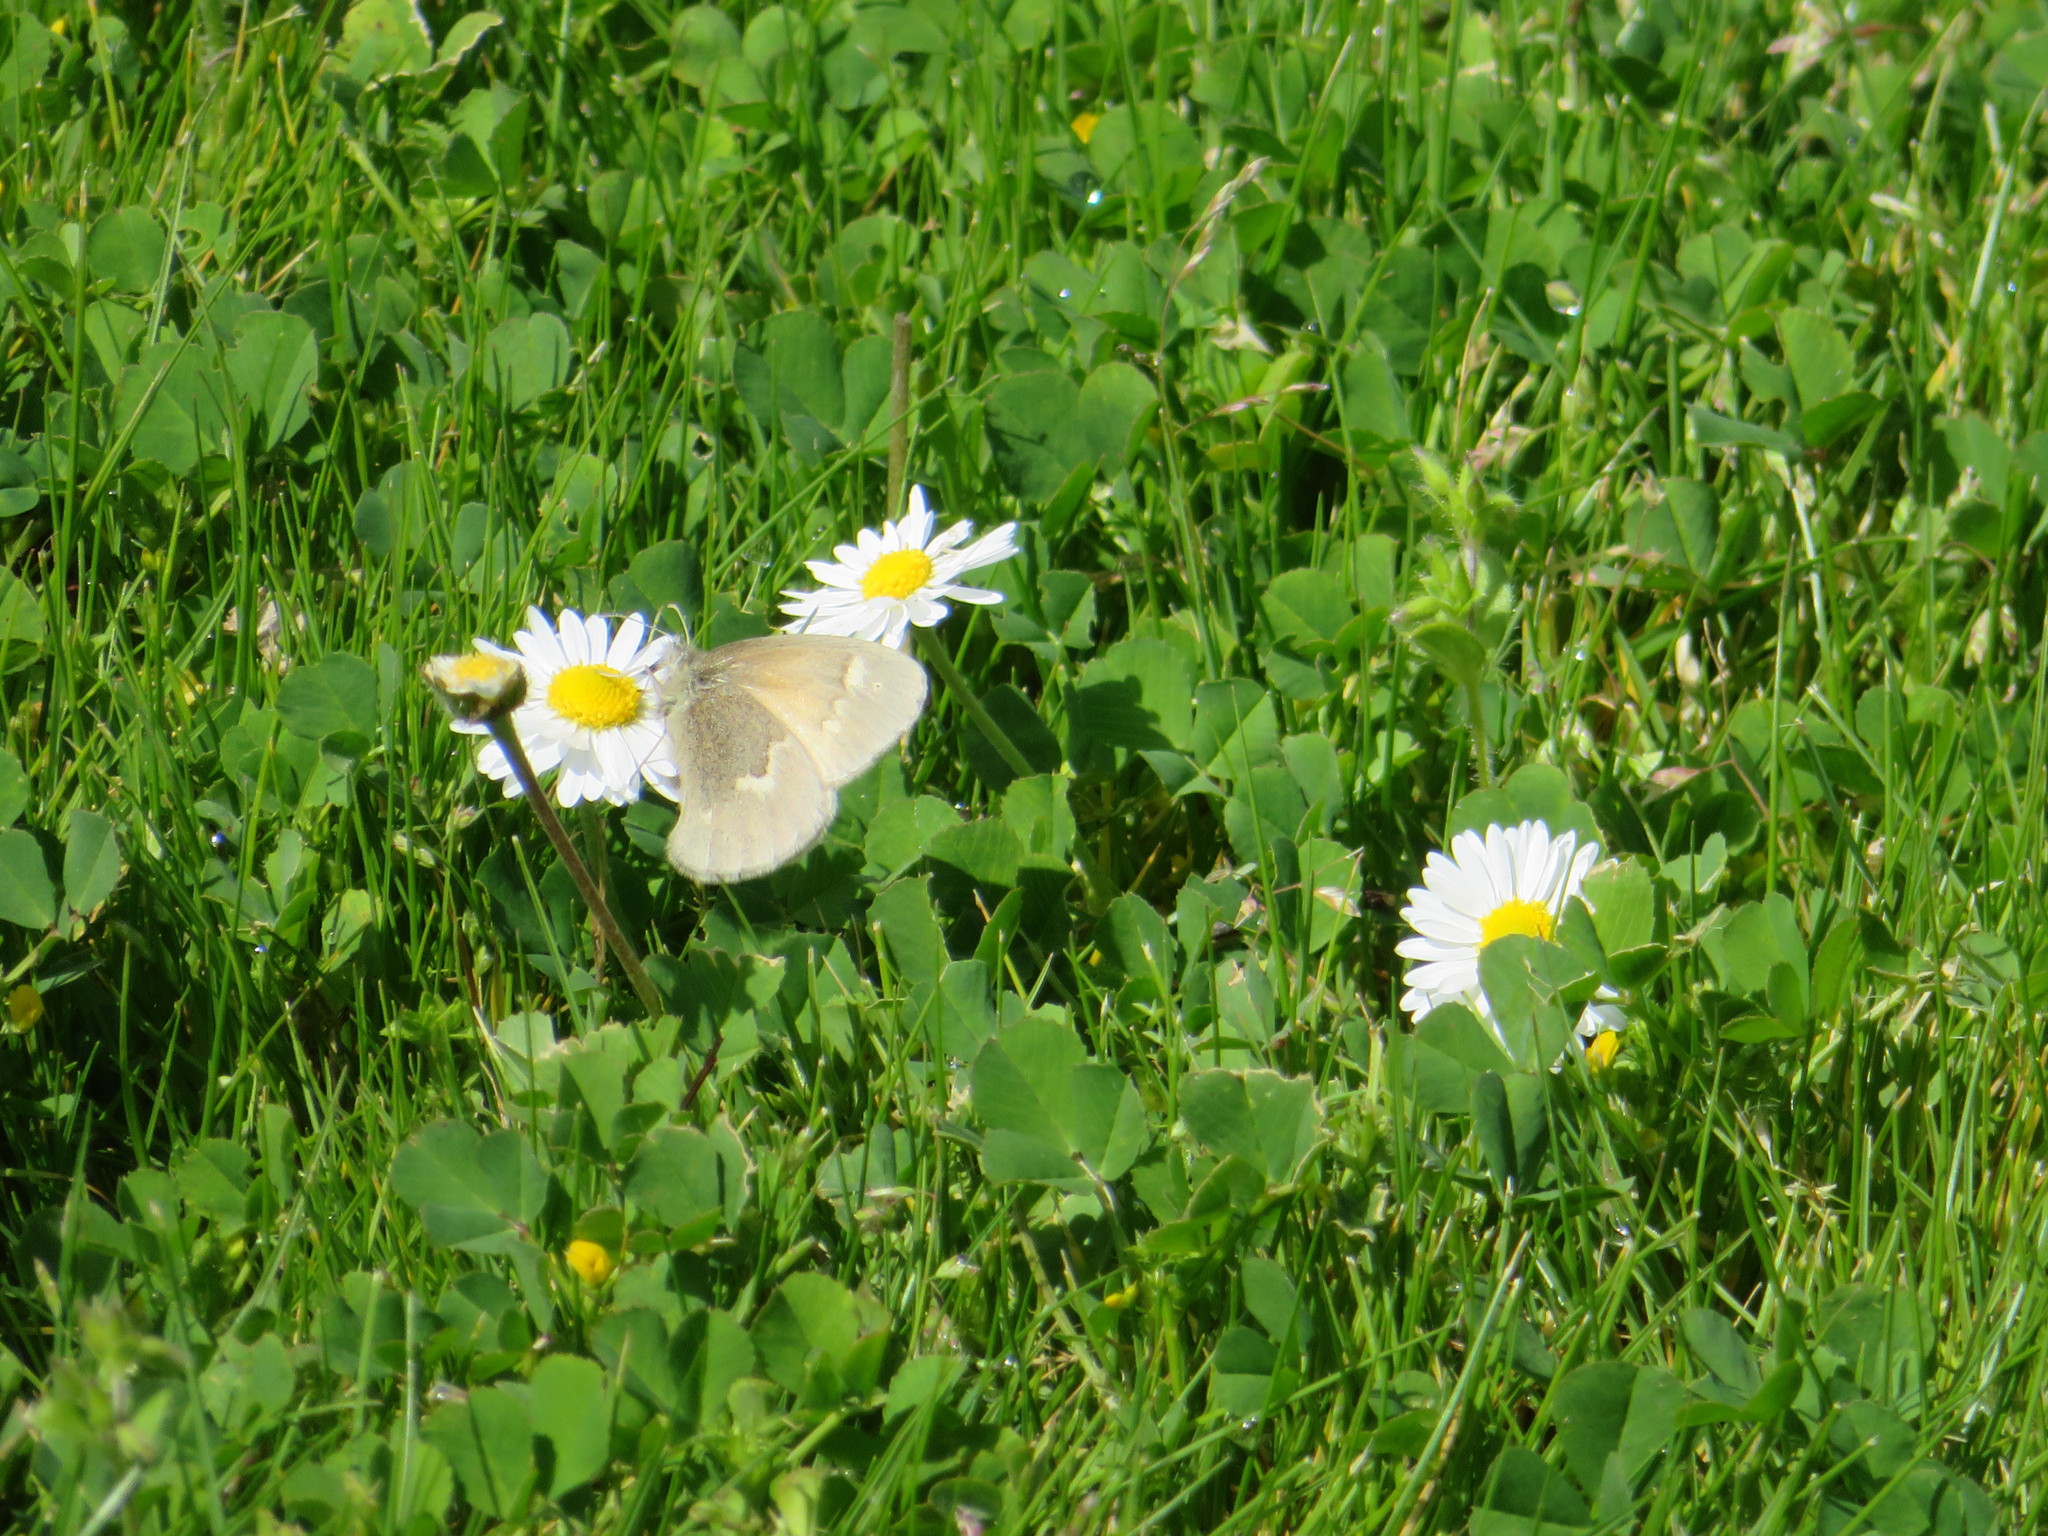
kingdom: Animalia
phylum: Arthropoda
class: Insecta
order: Lepidoptera
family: Nymphalidae
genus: Coenonympha
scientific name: Coenonympha california
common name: Common ringlet
